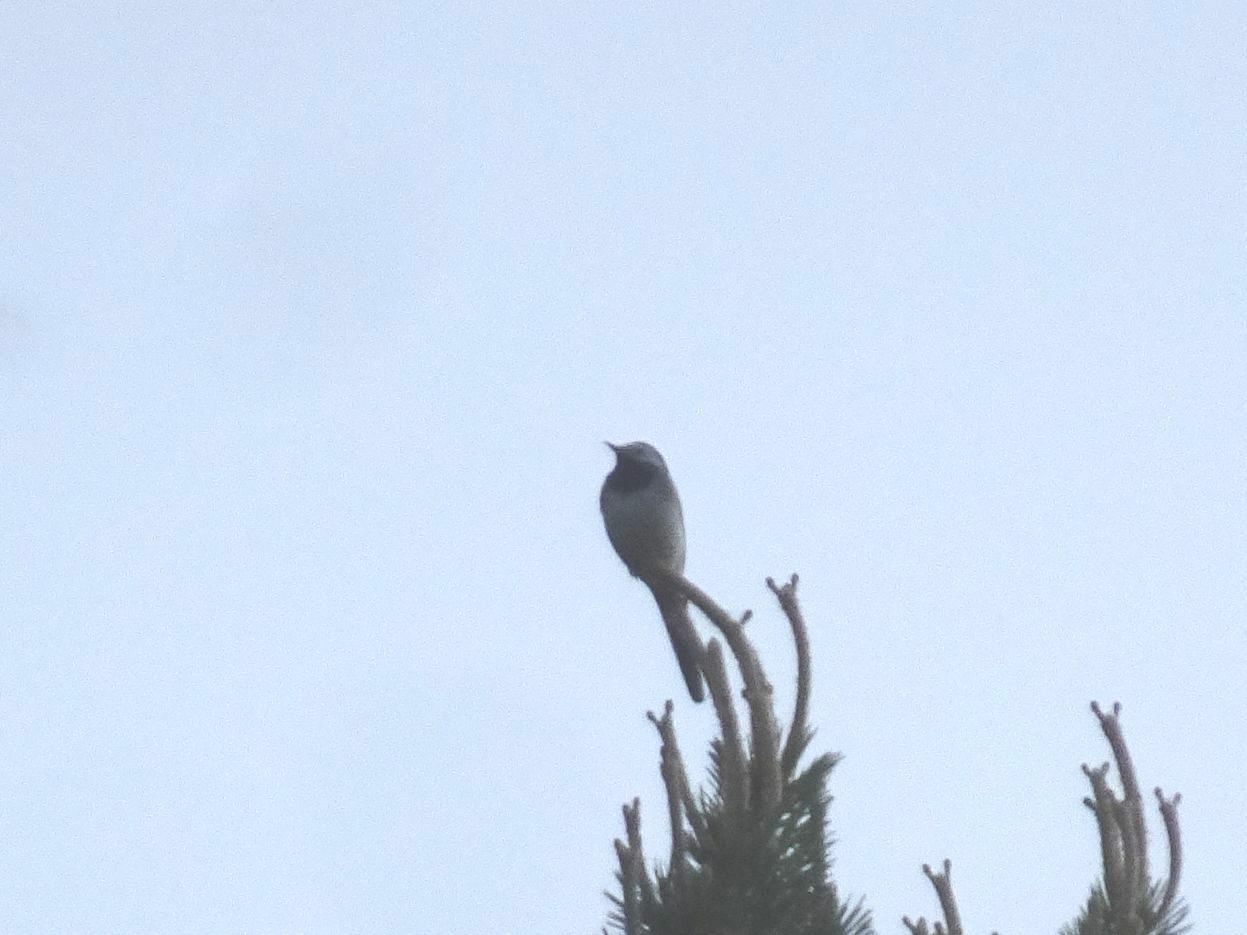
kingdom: Animalia
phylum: Chordata
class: Aves
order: Passeriformes
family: Motacillidae
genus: Motacilla
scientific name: Motacilla alba
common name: White wagtail
